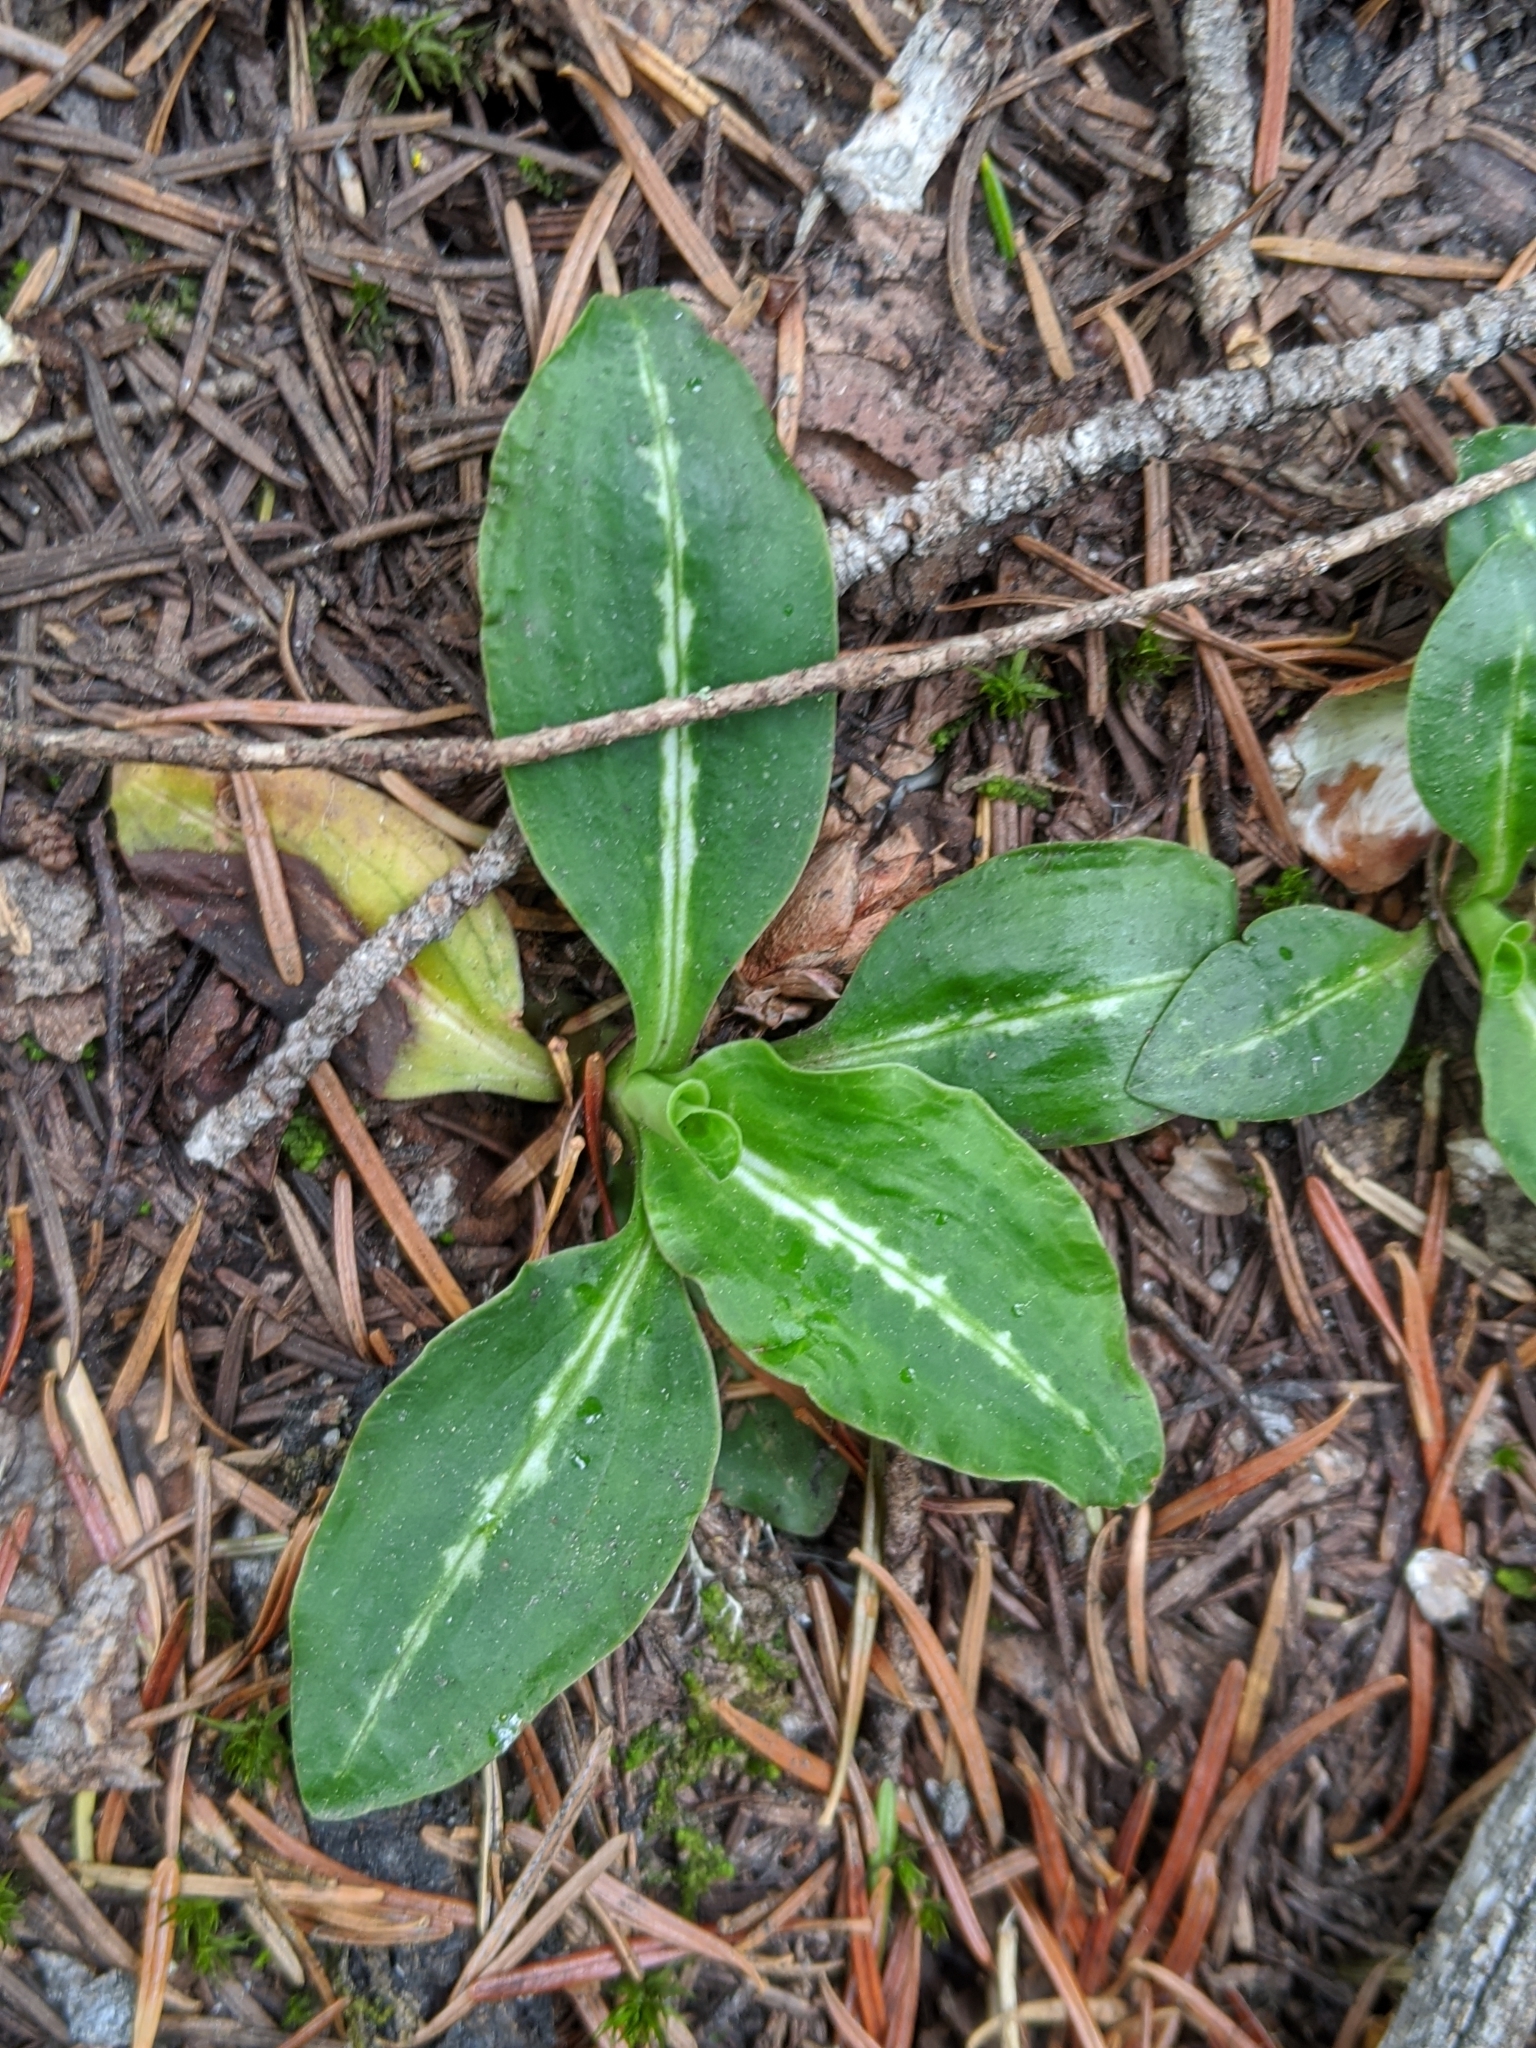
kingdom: Plantae
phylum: Tracheophyta
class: Liliopsida
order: Asparagales
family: Orchidaceae
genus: Goodyera
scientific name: Goodyera oblongifolia
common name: Giant rattlesnake-plantain
